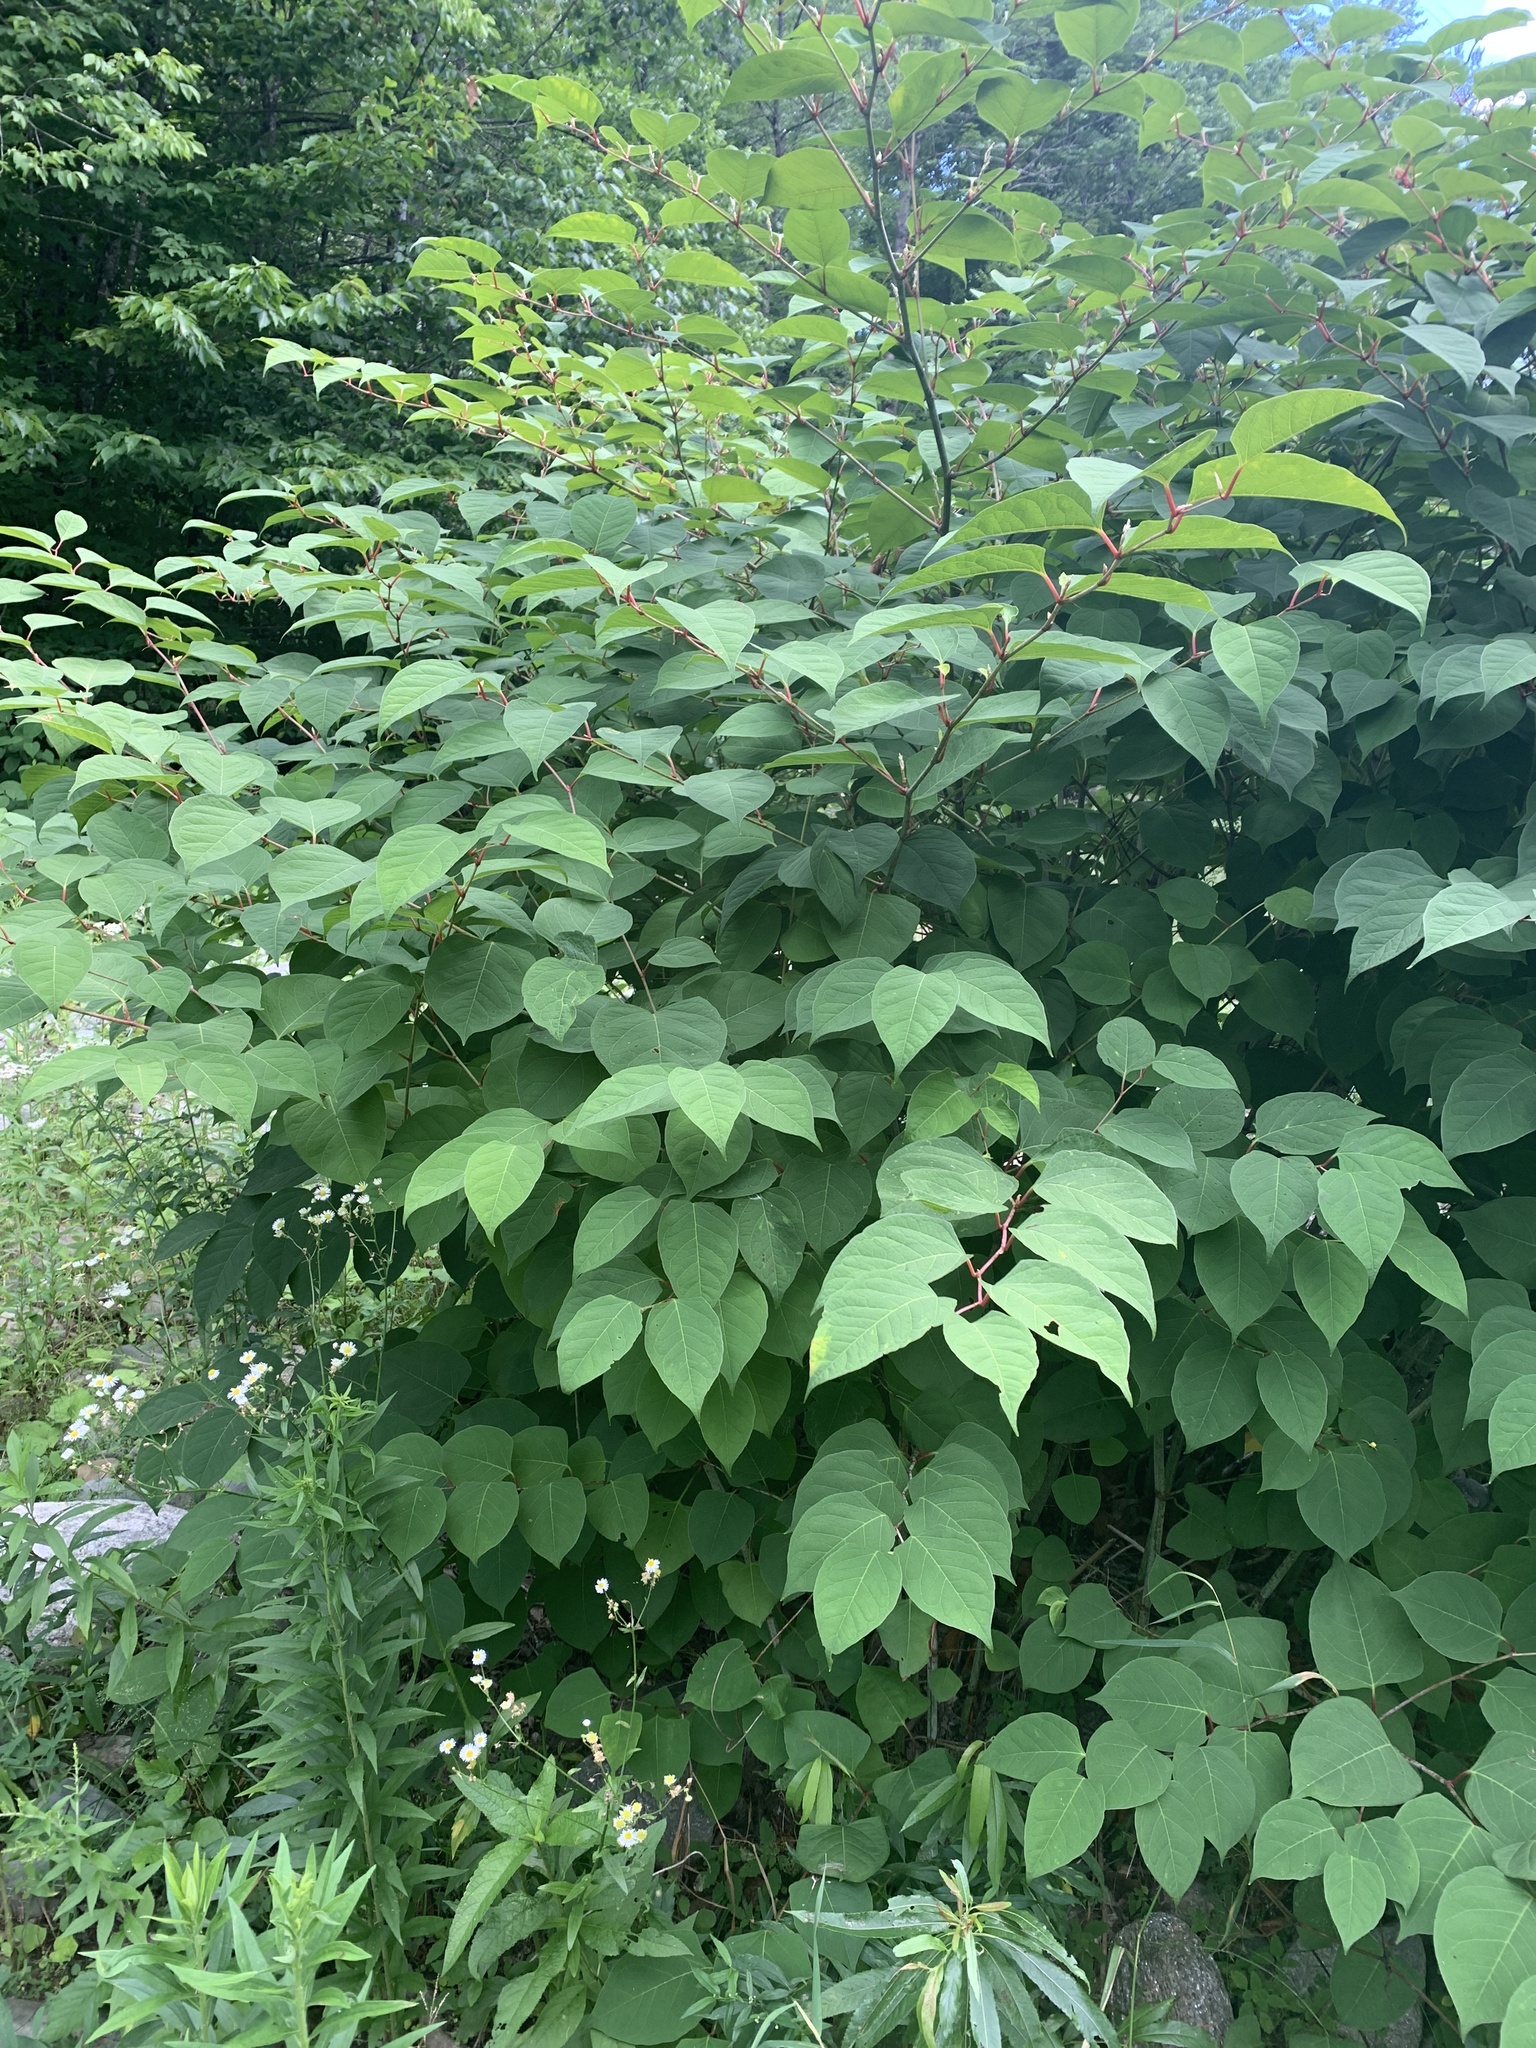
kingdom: Plantae
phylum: Tracheophyta
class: Magnoliopsida
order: Caryophyllales
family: Polygonaceae
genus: Reynoutria
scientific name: Reynoutria japonica
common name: Japanese knotweed
